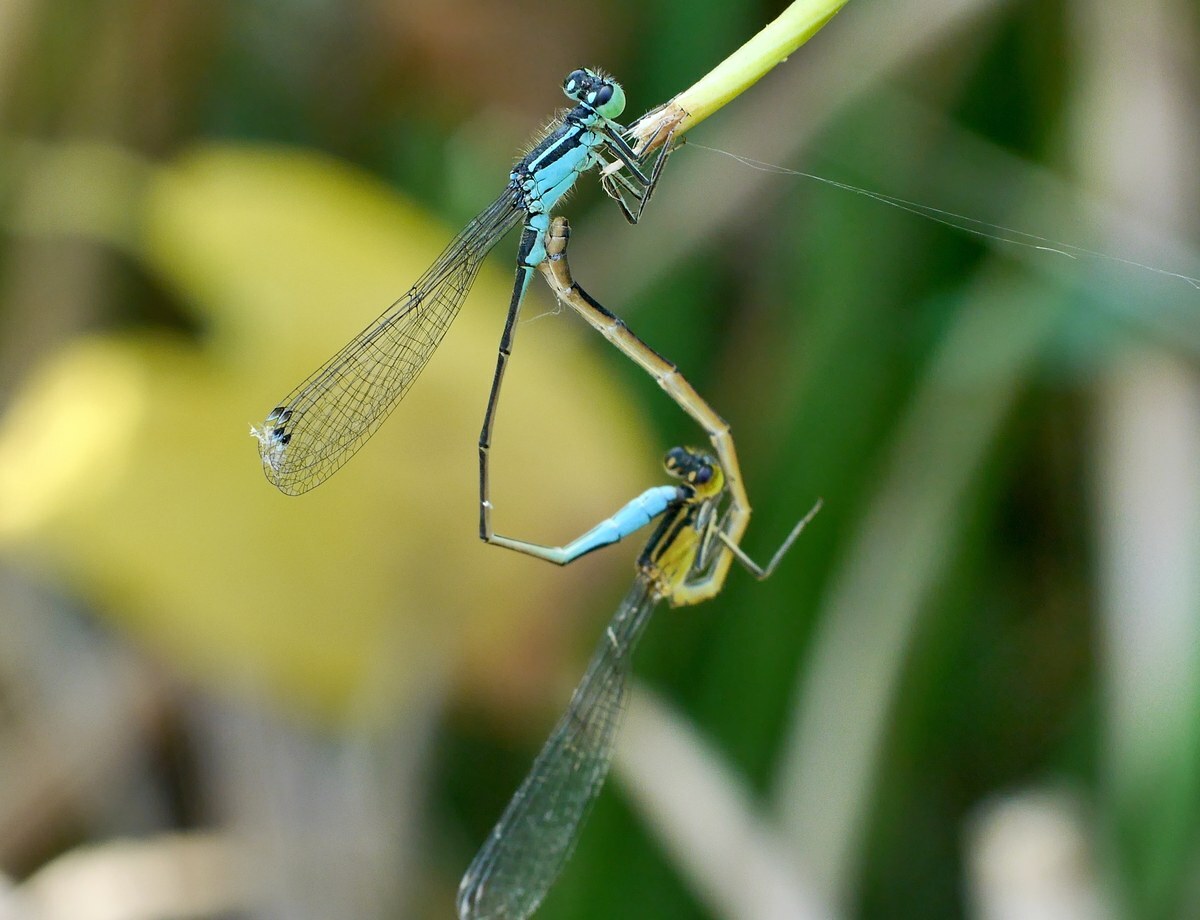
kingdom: Animalia
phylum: Arthropoda
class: Insecta
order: Odonata
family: Coenagrionidae
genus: Ischnura
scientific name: Ischnura elegans
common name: Blue-tailed damselfly
